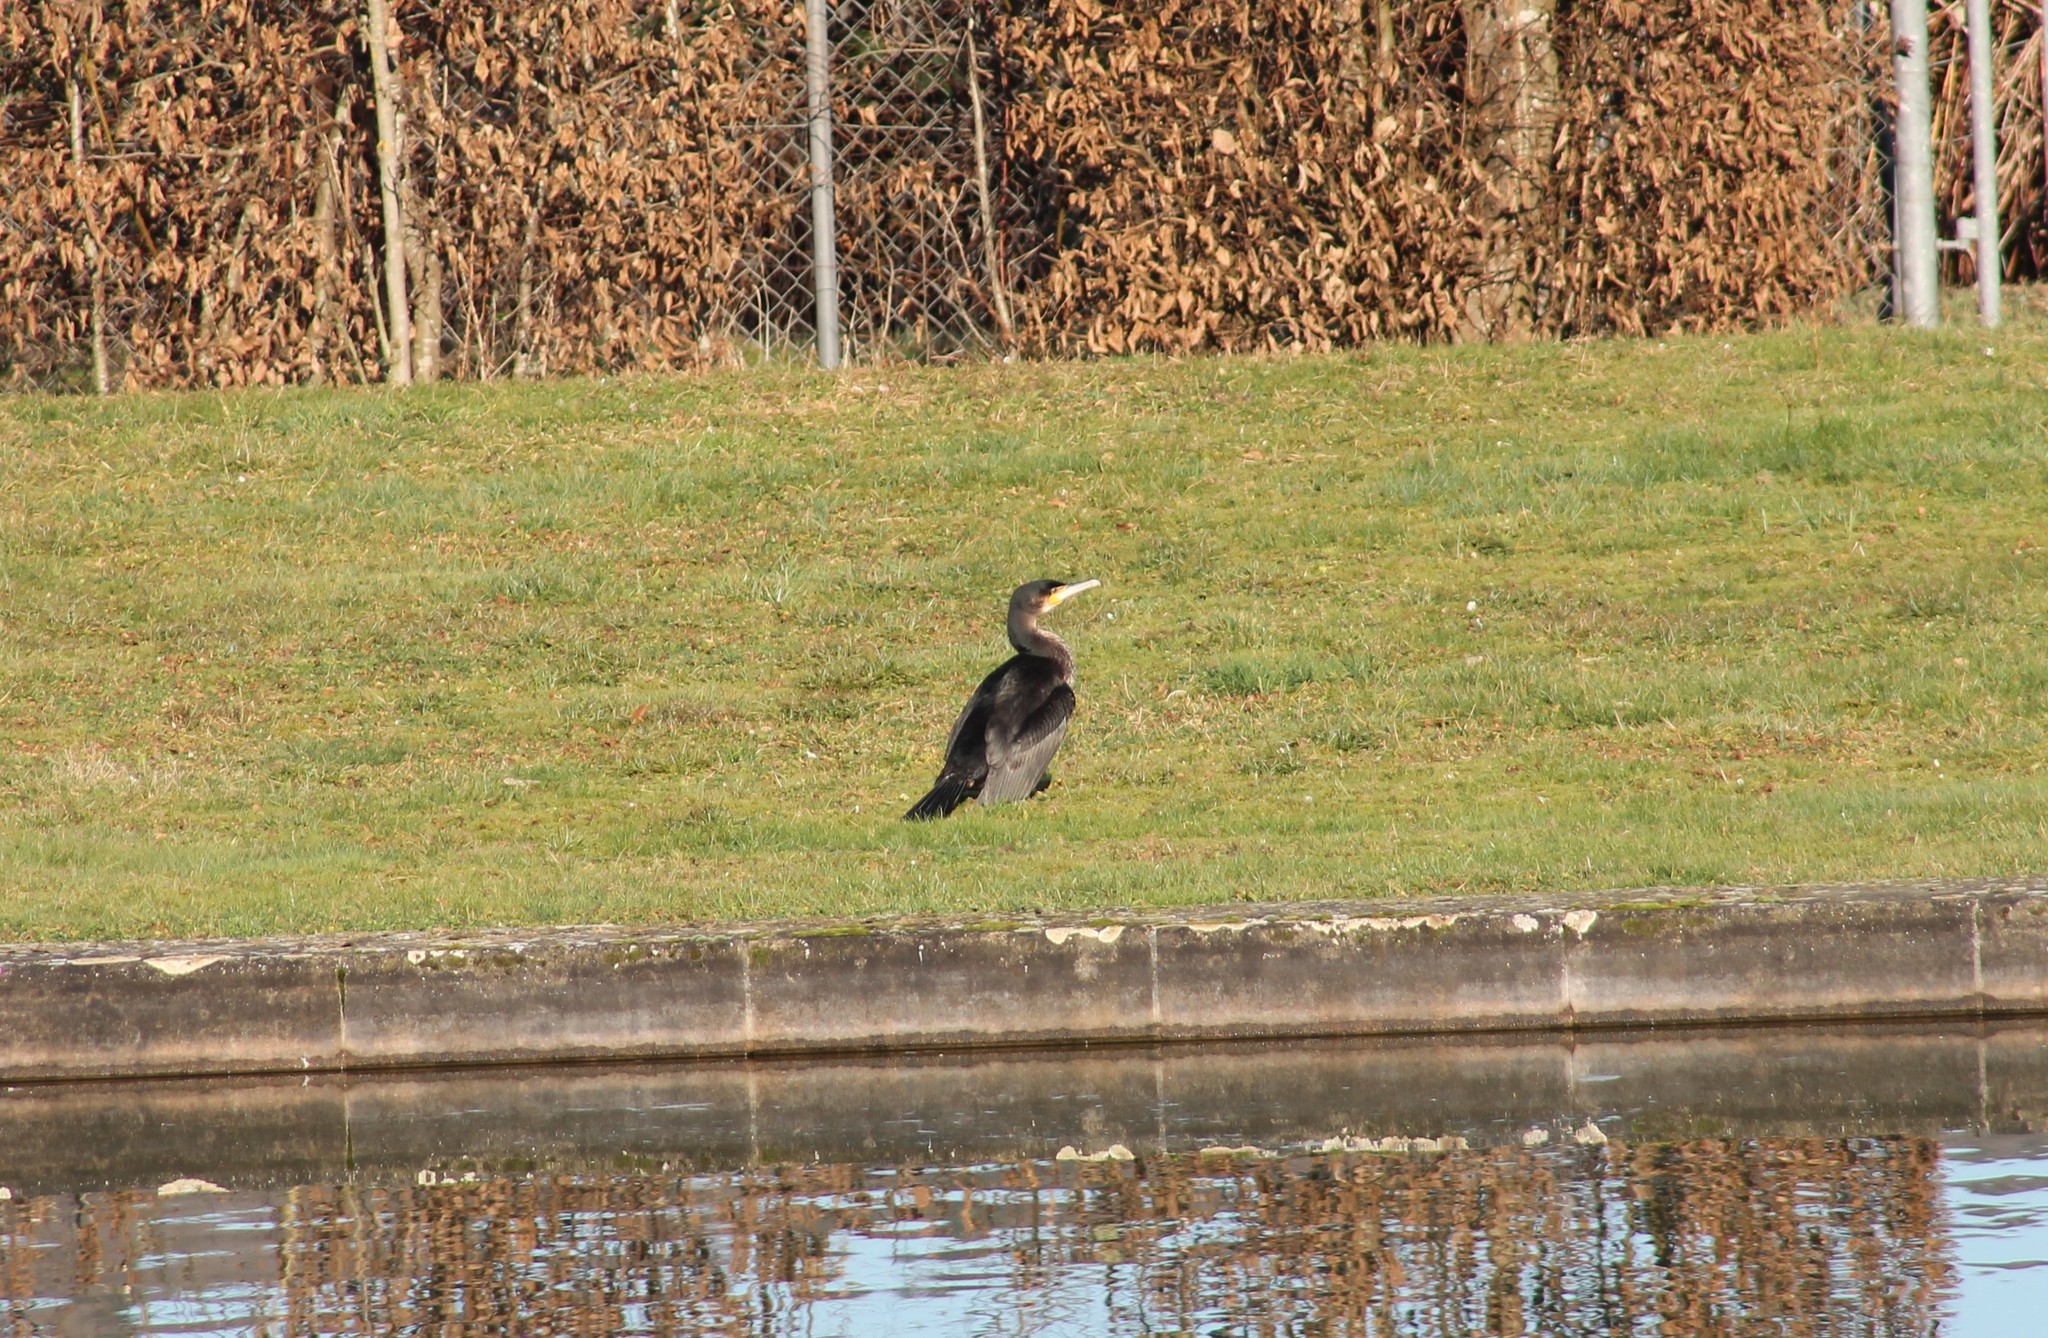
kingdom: Animalia
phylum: Chordata
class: Aves
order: Suliformes
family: Phalacrocoracidae
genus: Phalacrocorax
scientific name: Phalacrocorax carbo
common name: Great cormorant
